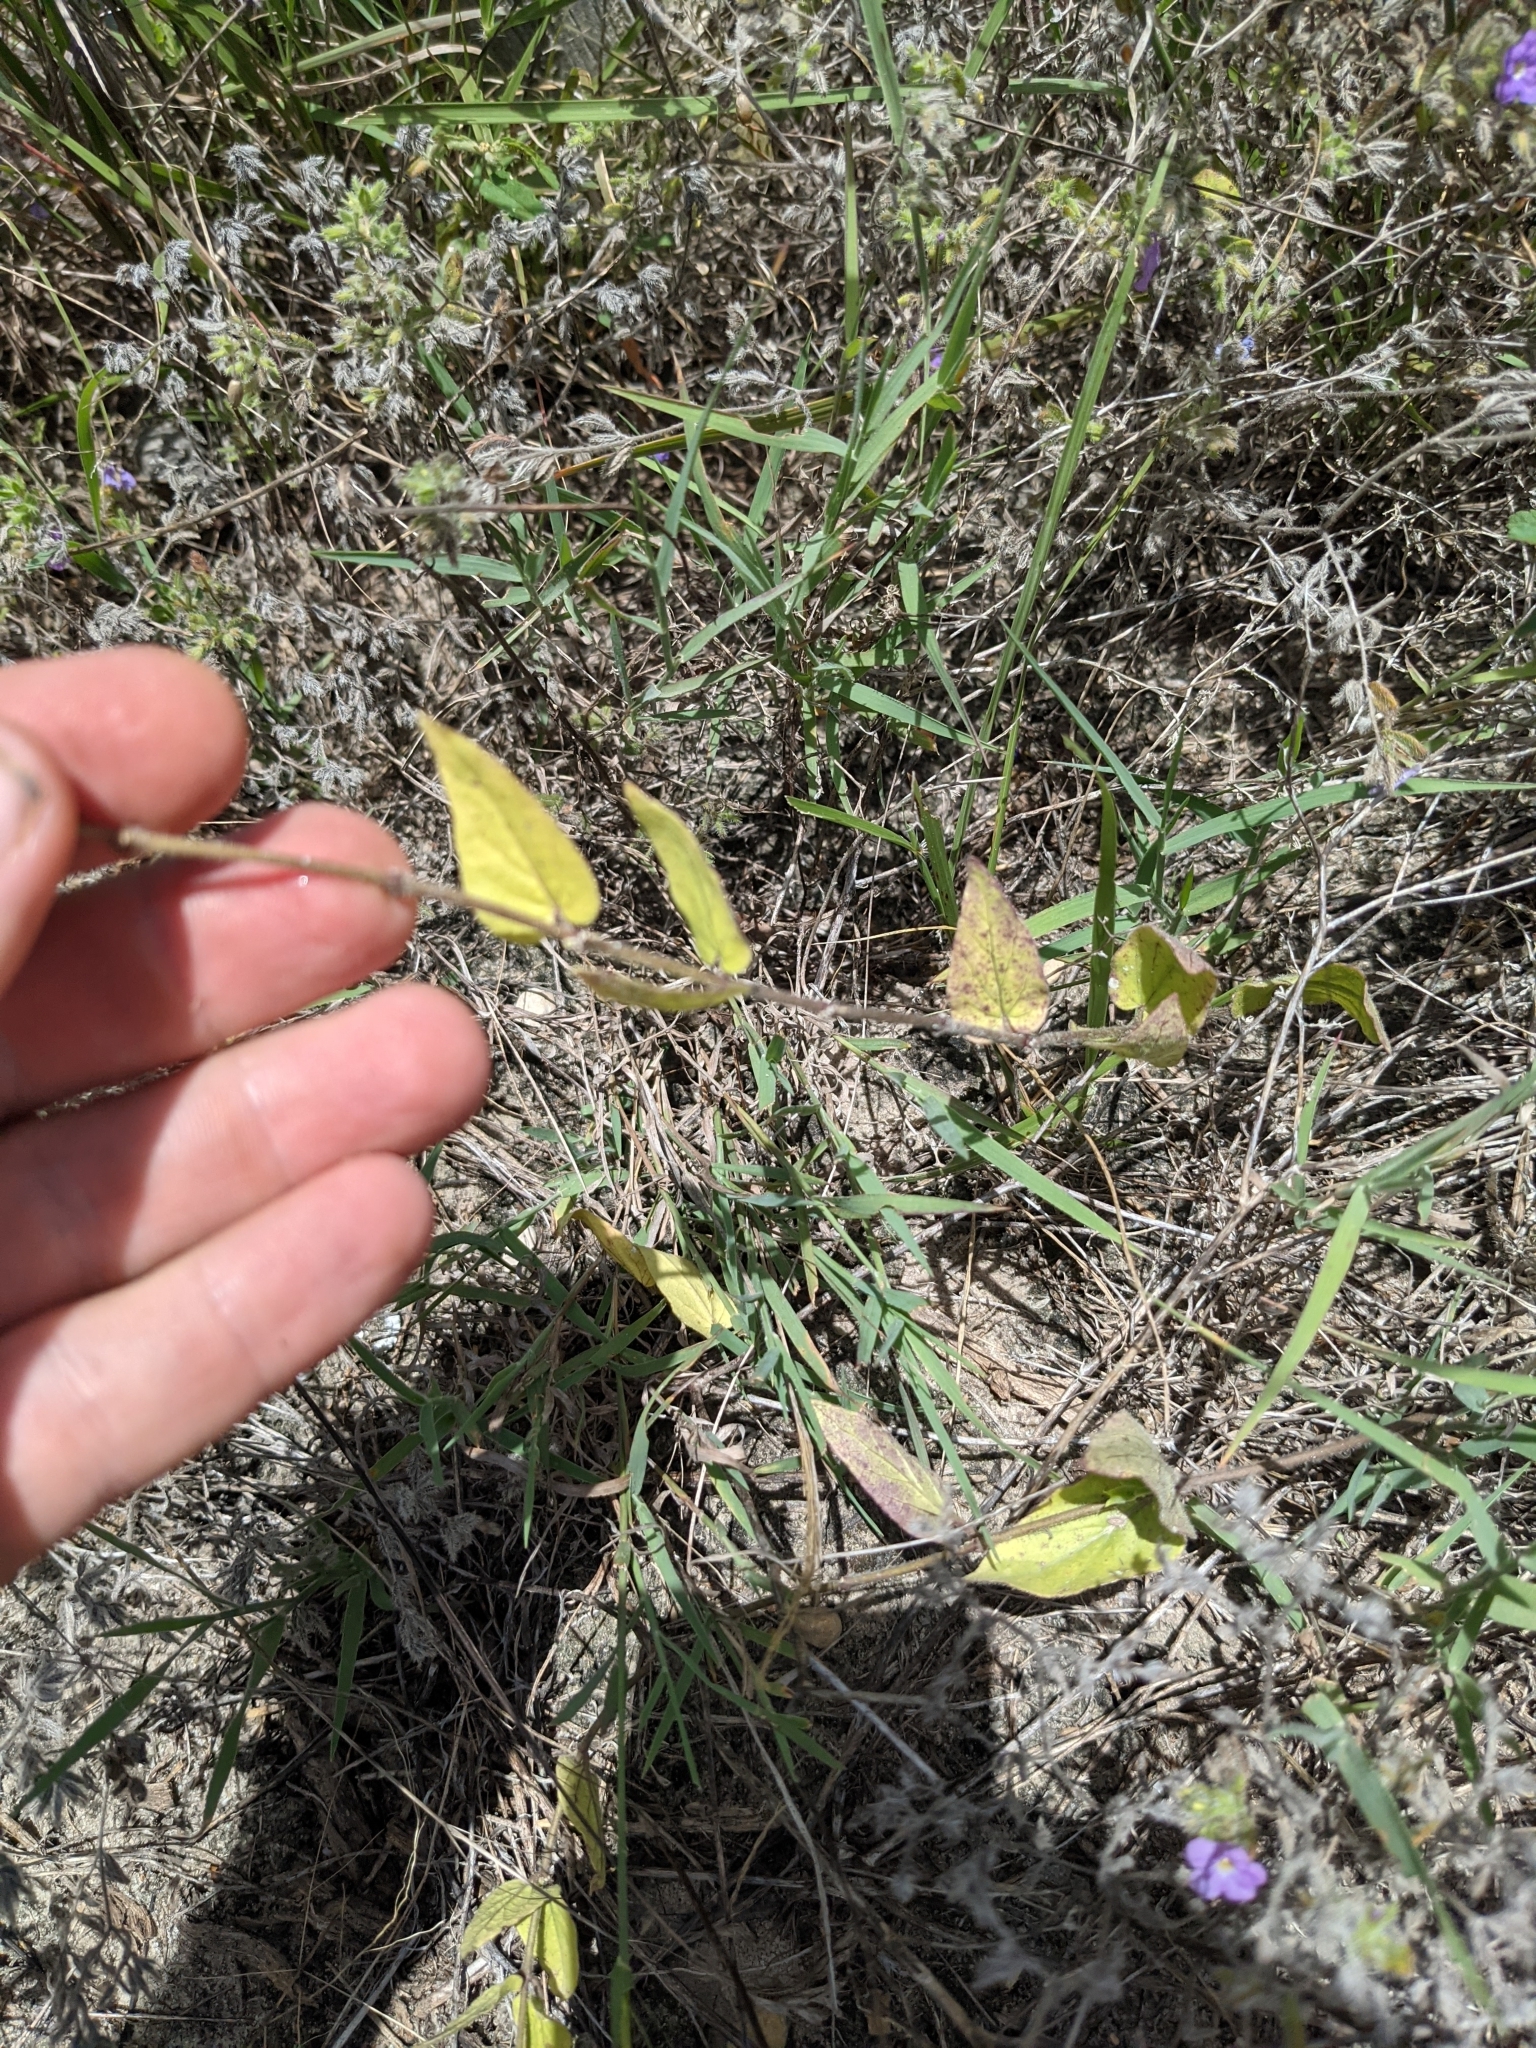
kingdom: Plantae
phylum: Tracheophyta
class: Magnoliopsida
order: Gentianales
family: Apocynaceae
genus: Matelea
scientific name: Matelea cynanchoides
